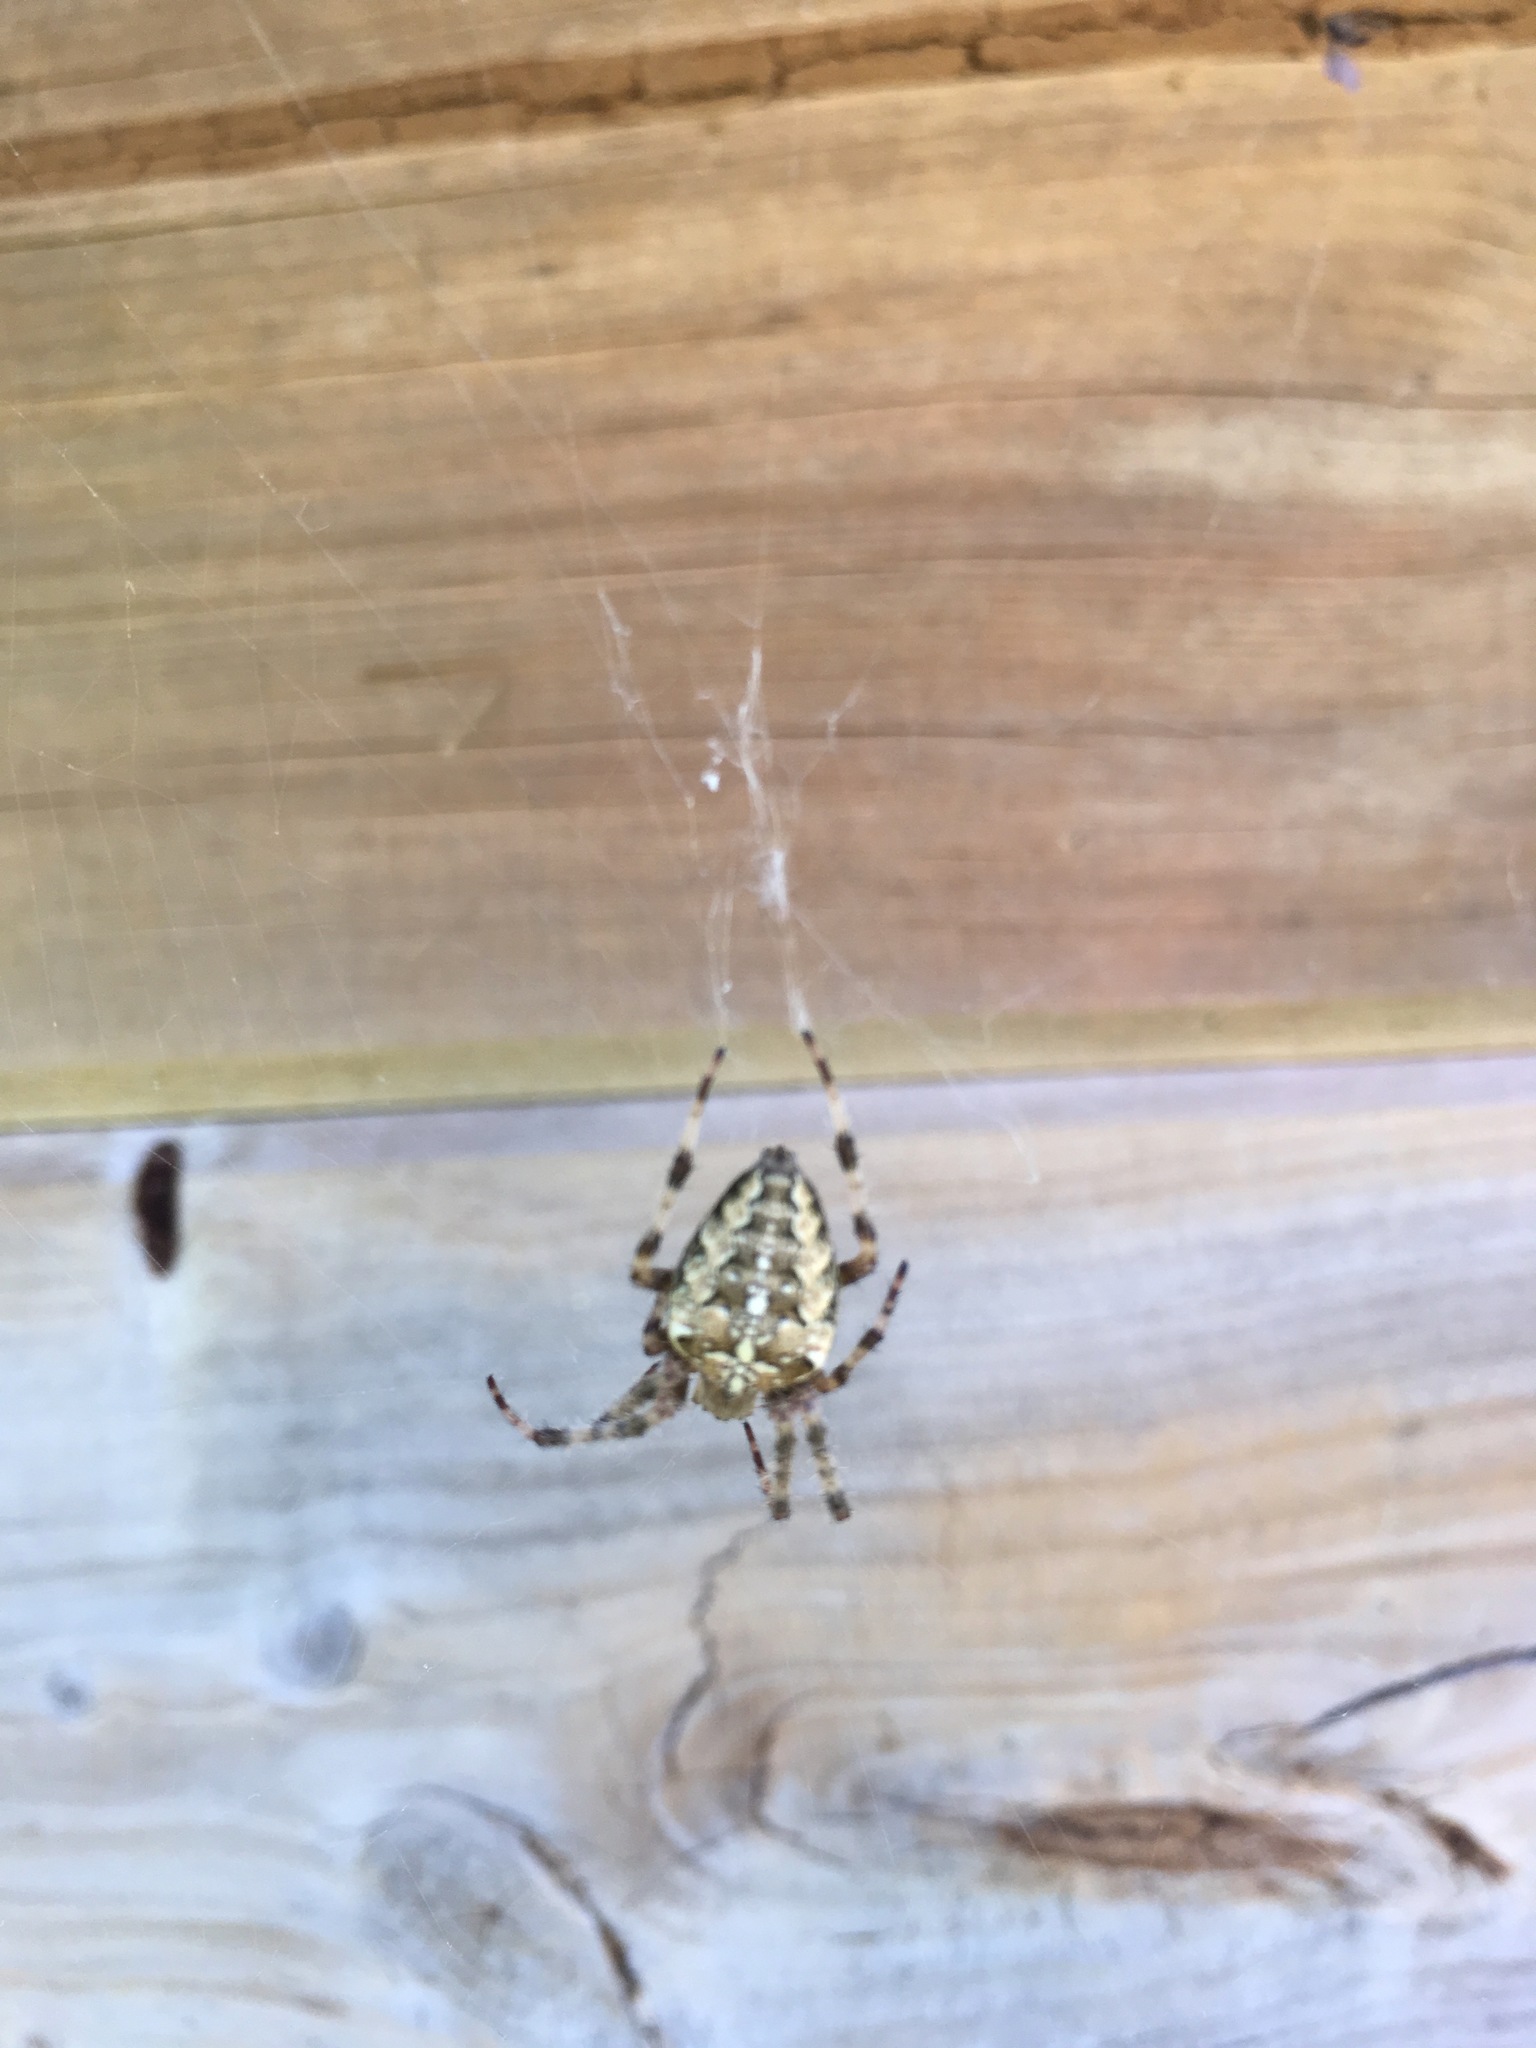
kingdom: Animalia
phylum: Arthropoda
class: Arachnida
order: Araneae
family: Araneidae
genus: Araneus
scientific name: Araneus diadematus
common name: Cross orbweaver
